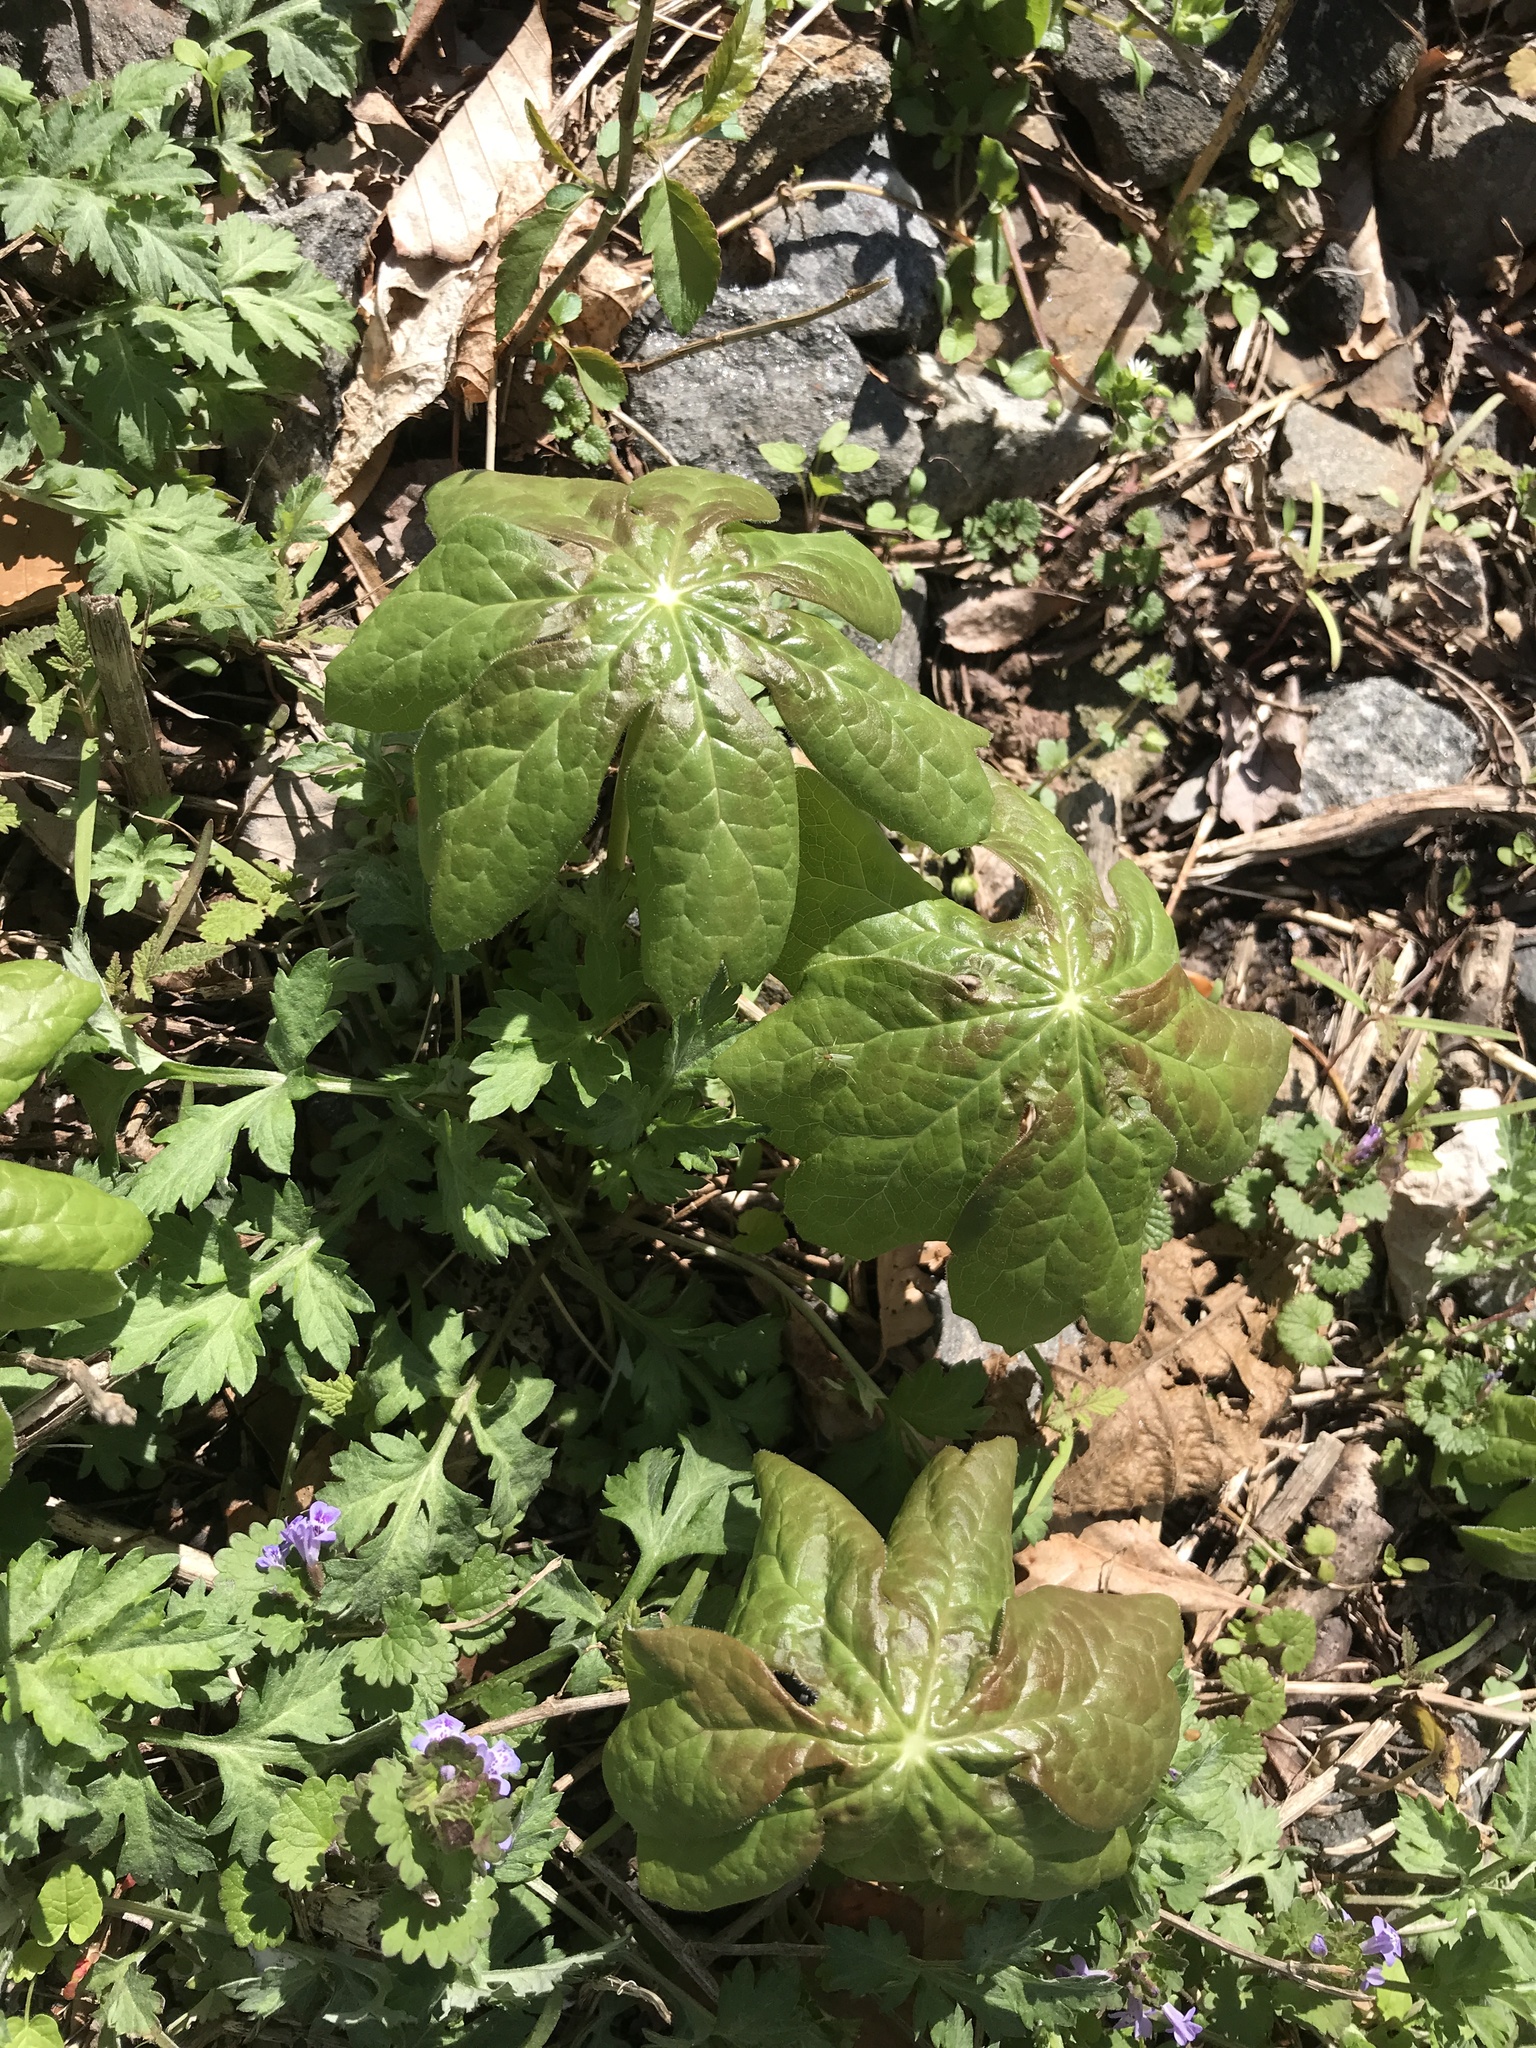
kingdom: Plantae
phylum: Tracheophyta
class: Magnoliopsida
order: Ranunculales
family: Berberidaceae
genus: Podophyllum
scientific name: Podophyllum peltatum
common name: Wild mandrake
